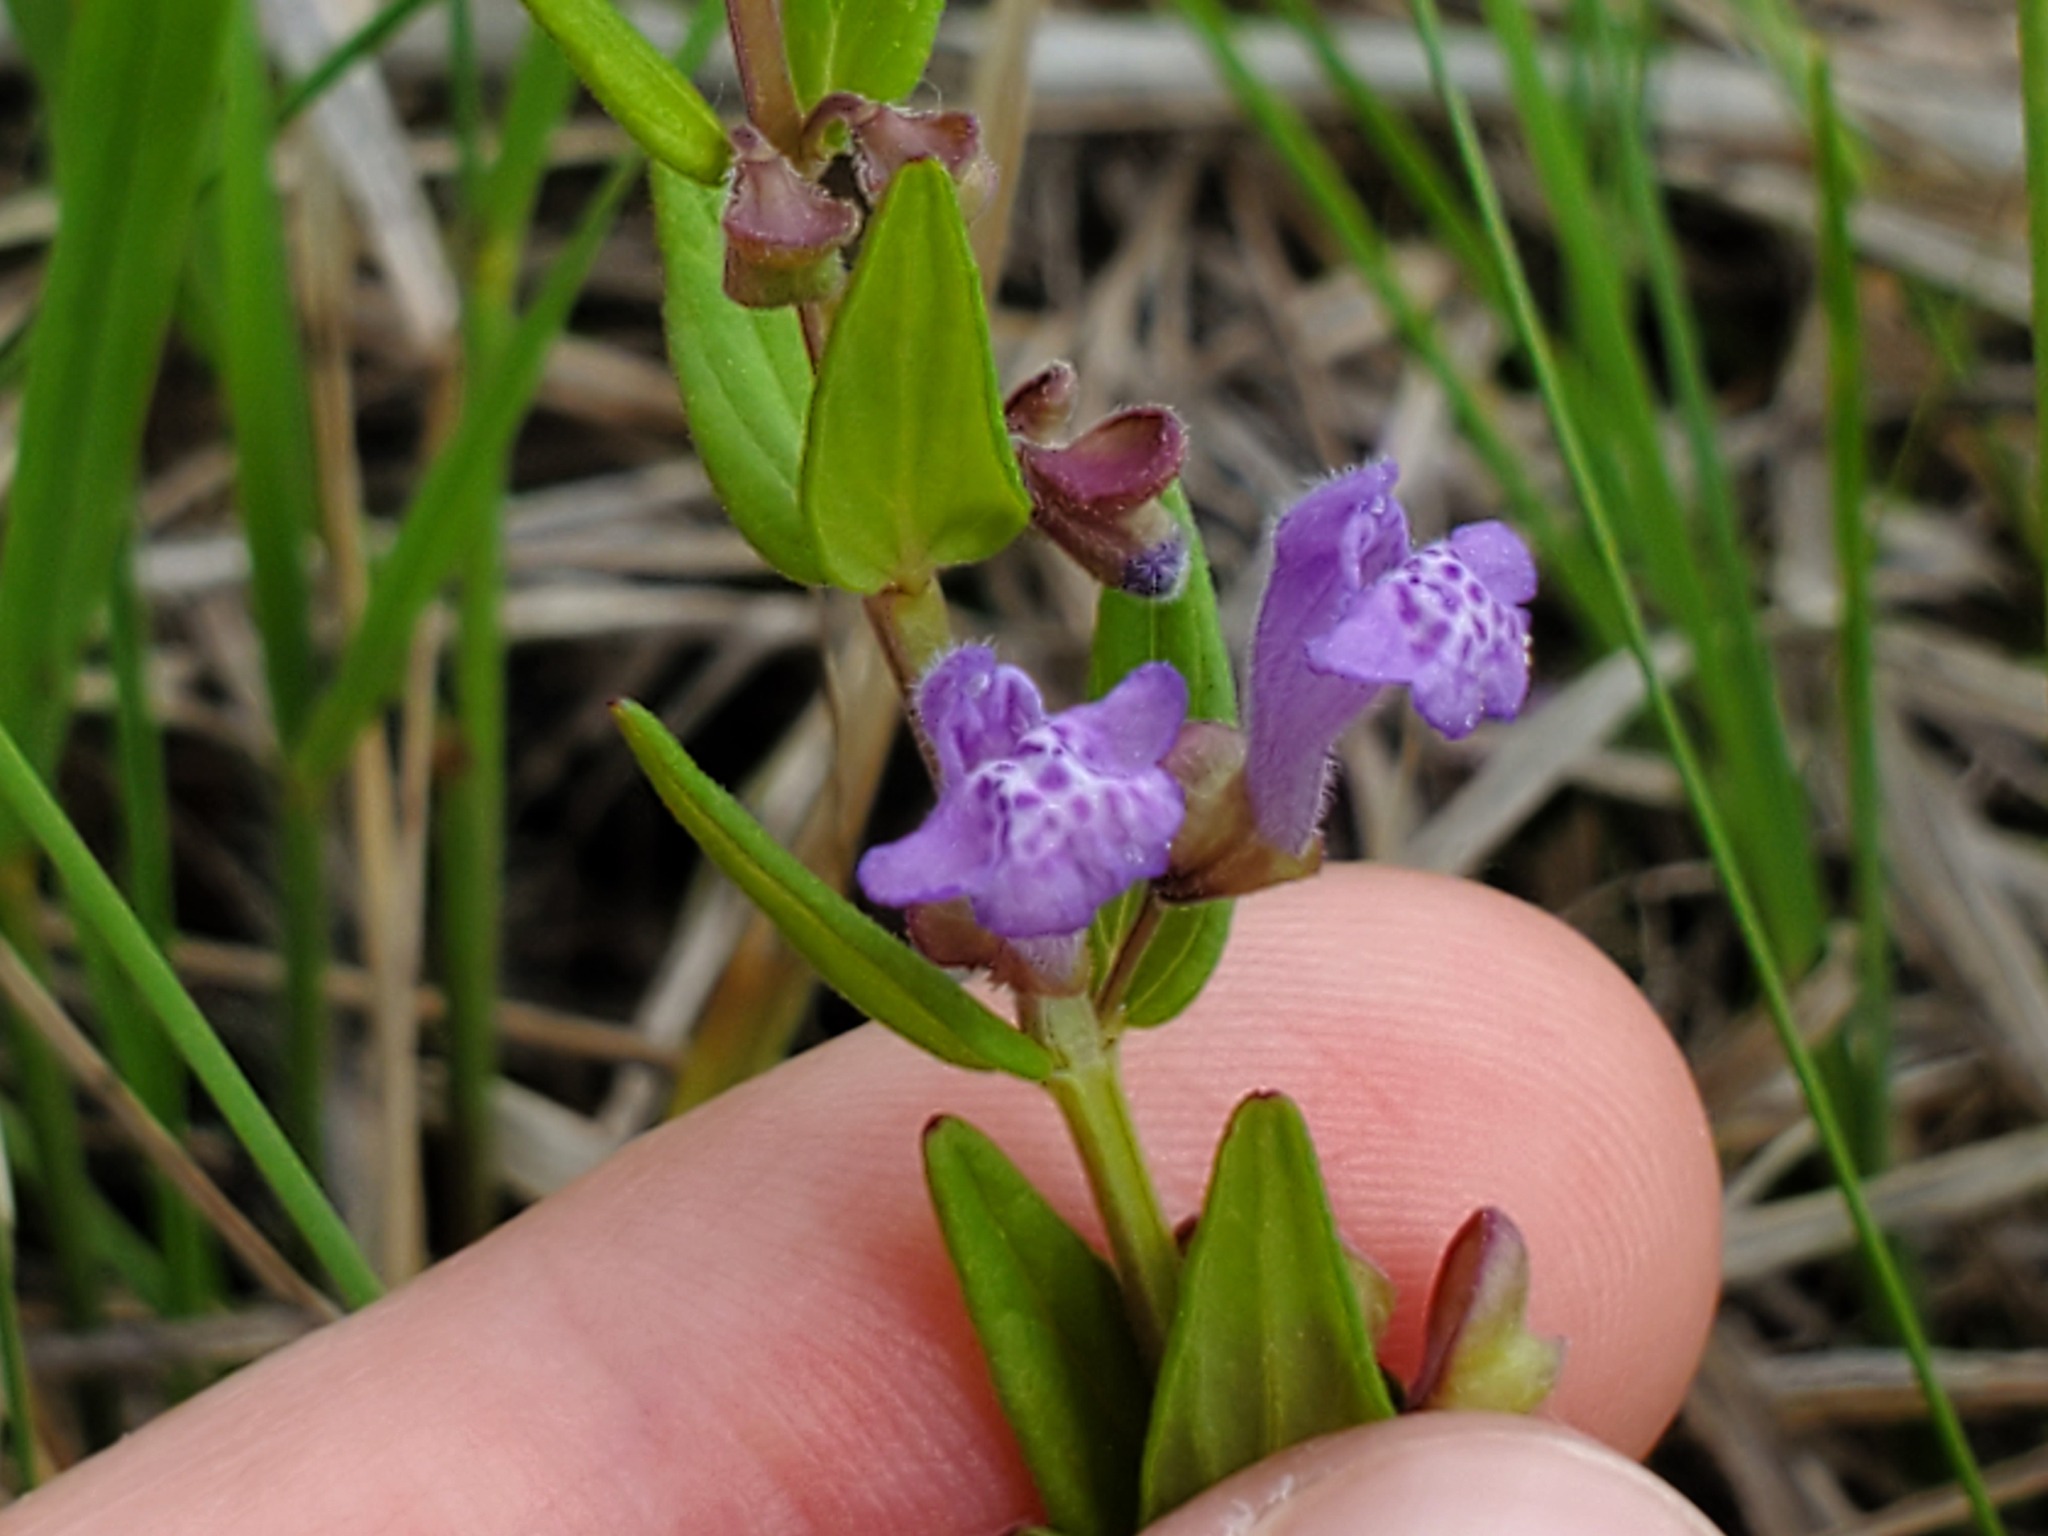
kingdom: Plantae
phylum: Tracheophyta
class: Magnoliopsida
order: Lamiales
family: Lamiaceae
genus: Scutellaria
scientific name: Scutellaria parvula
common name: Little scullcap
